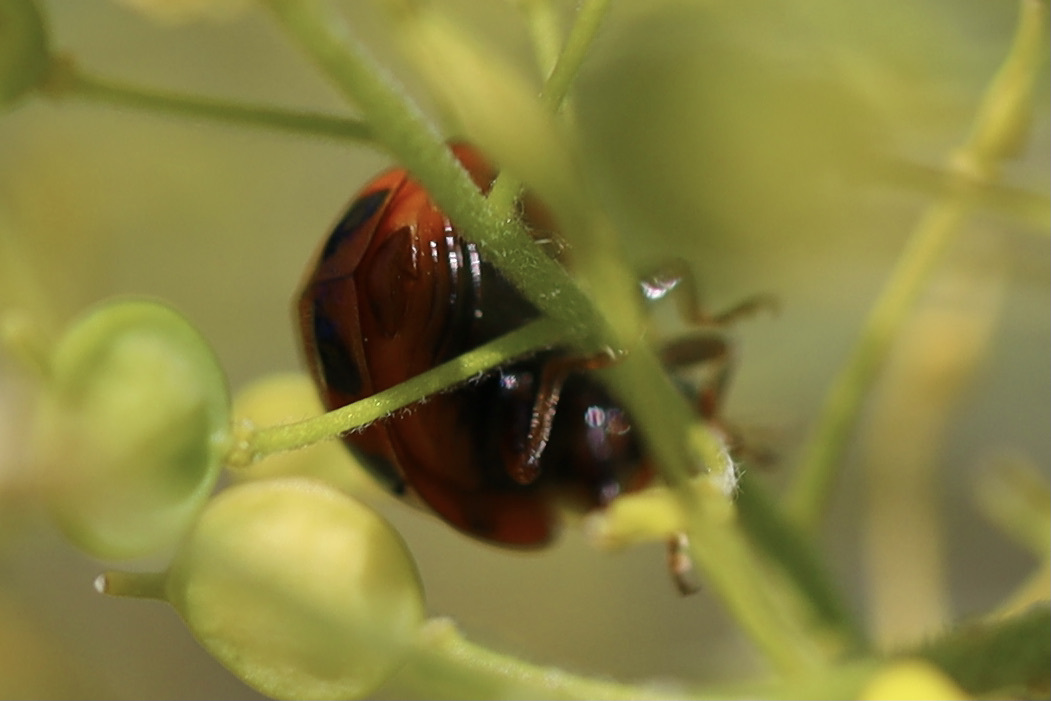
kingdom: Animalia
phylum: Arthropoda
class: Insecta
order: Coleoptera
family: Coccinellidae
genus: Harmonia
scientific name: Harmonia axyridis
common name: Harlequin ladybird
